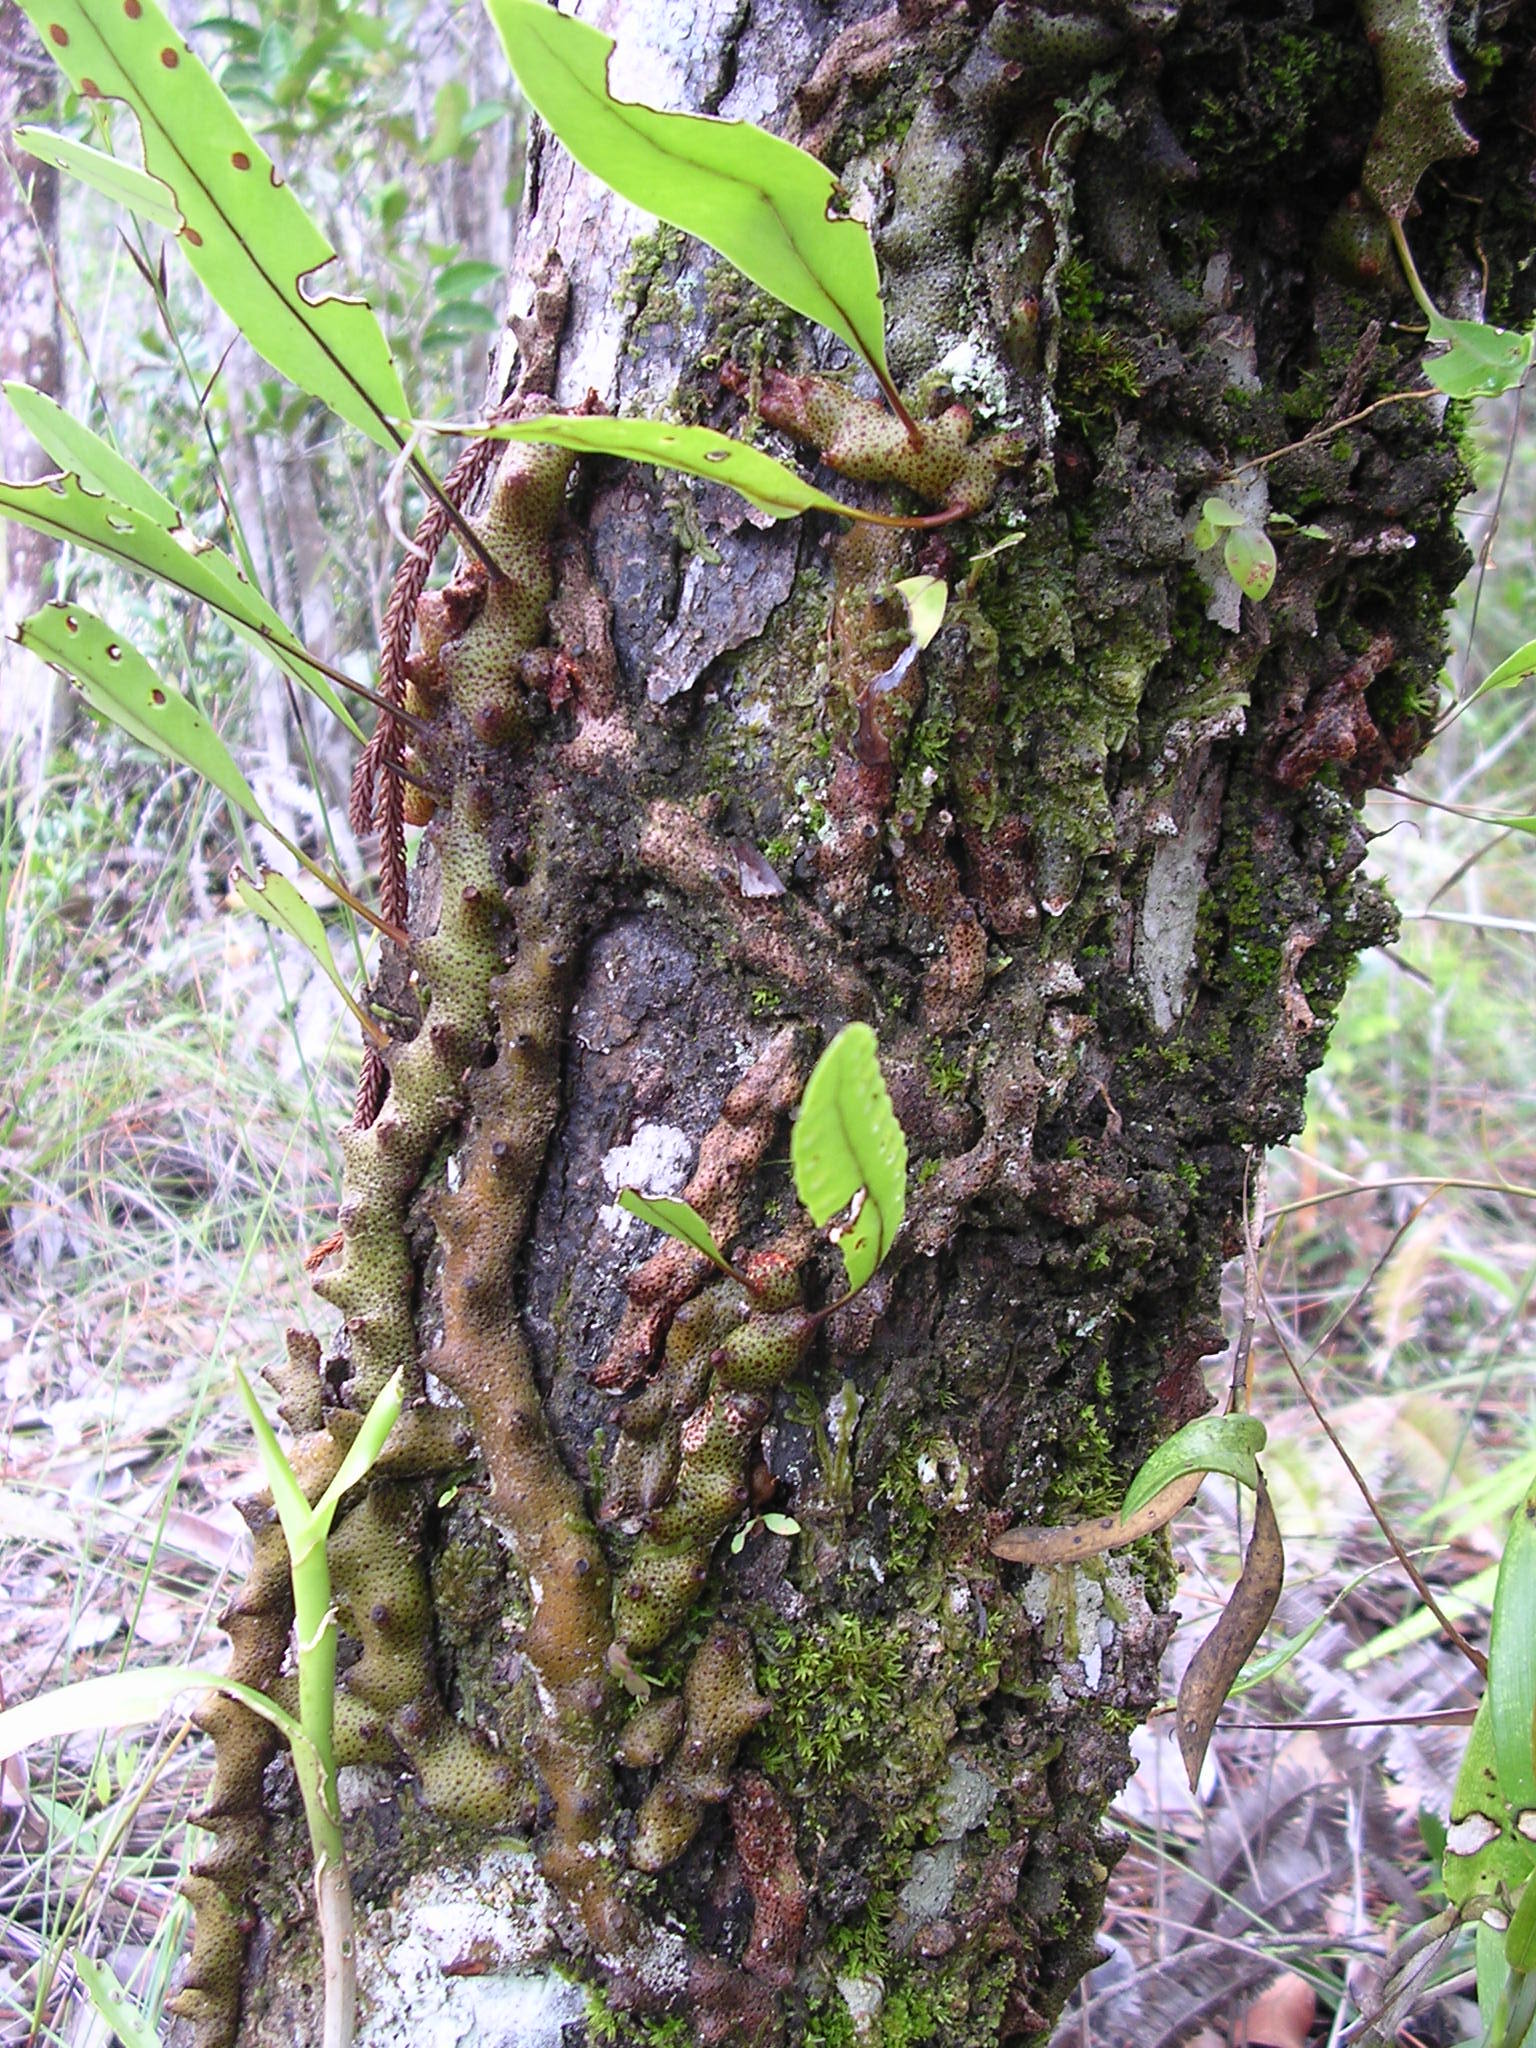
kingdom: Plantae
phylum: Tracheophyta
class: Polypodiopsida
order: Polypodiales
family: Polypodiaceae
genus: Lecanopteris
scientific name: Lecanopteris sinuosa
